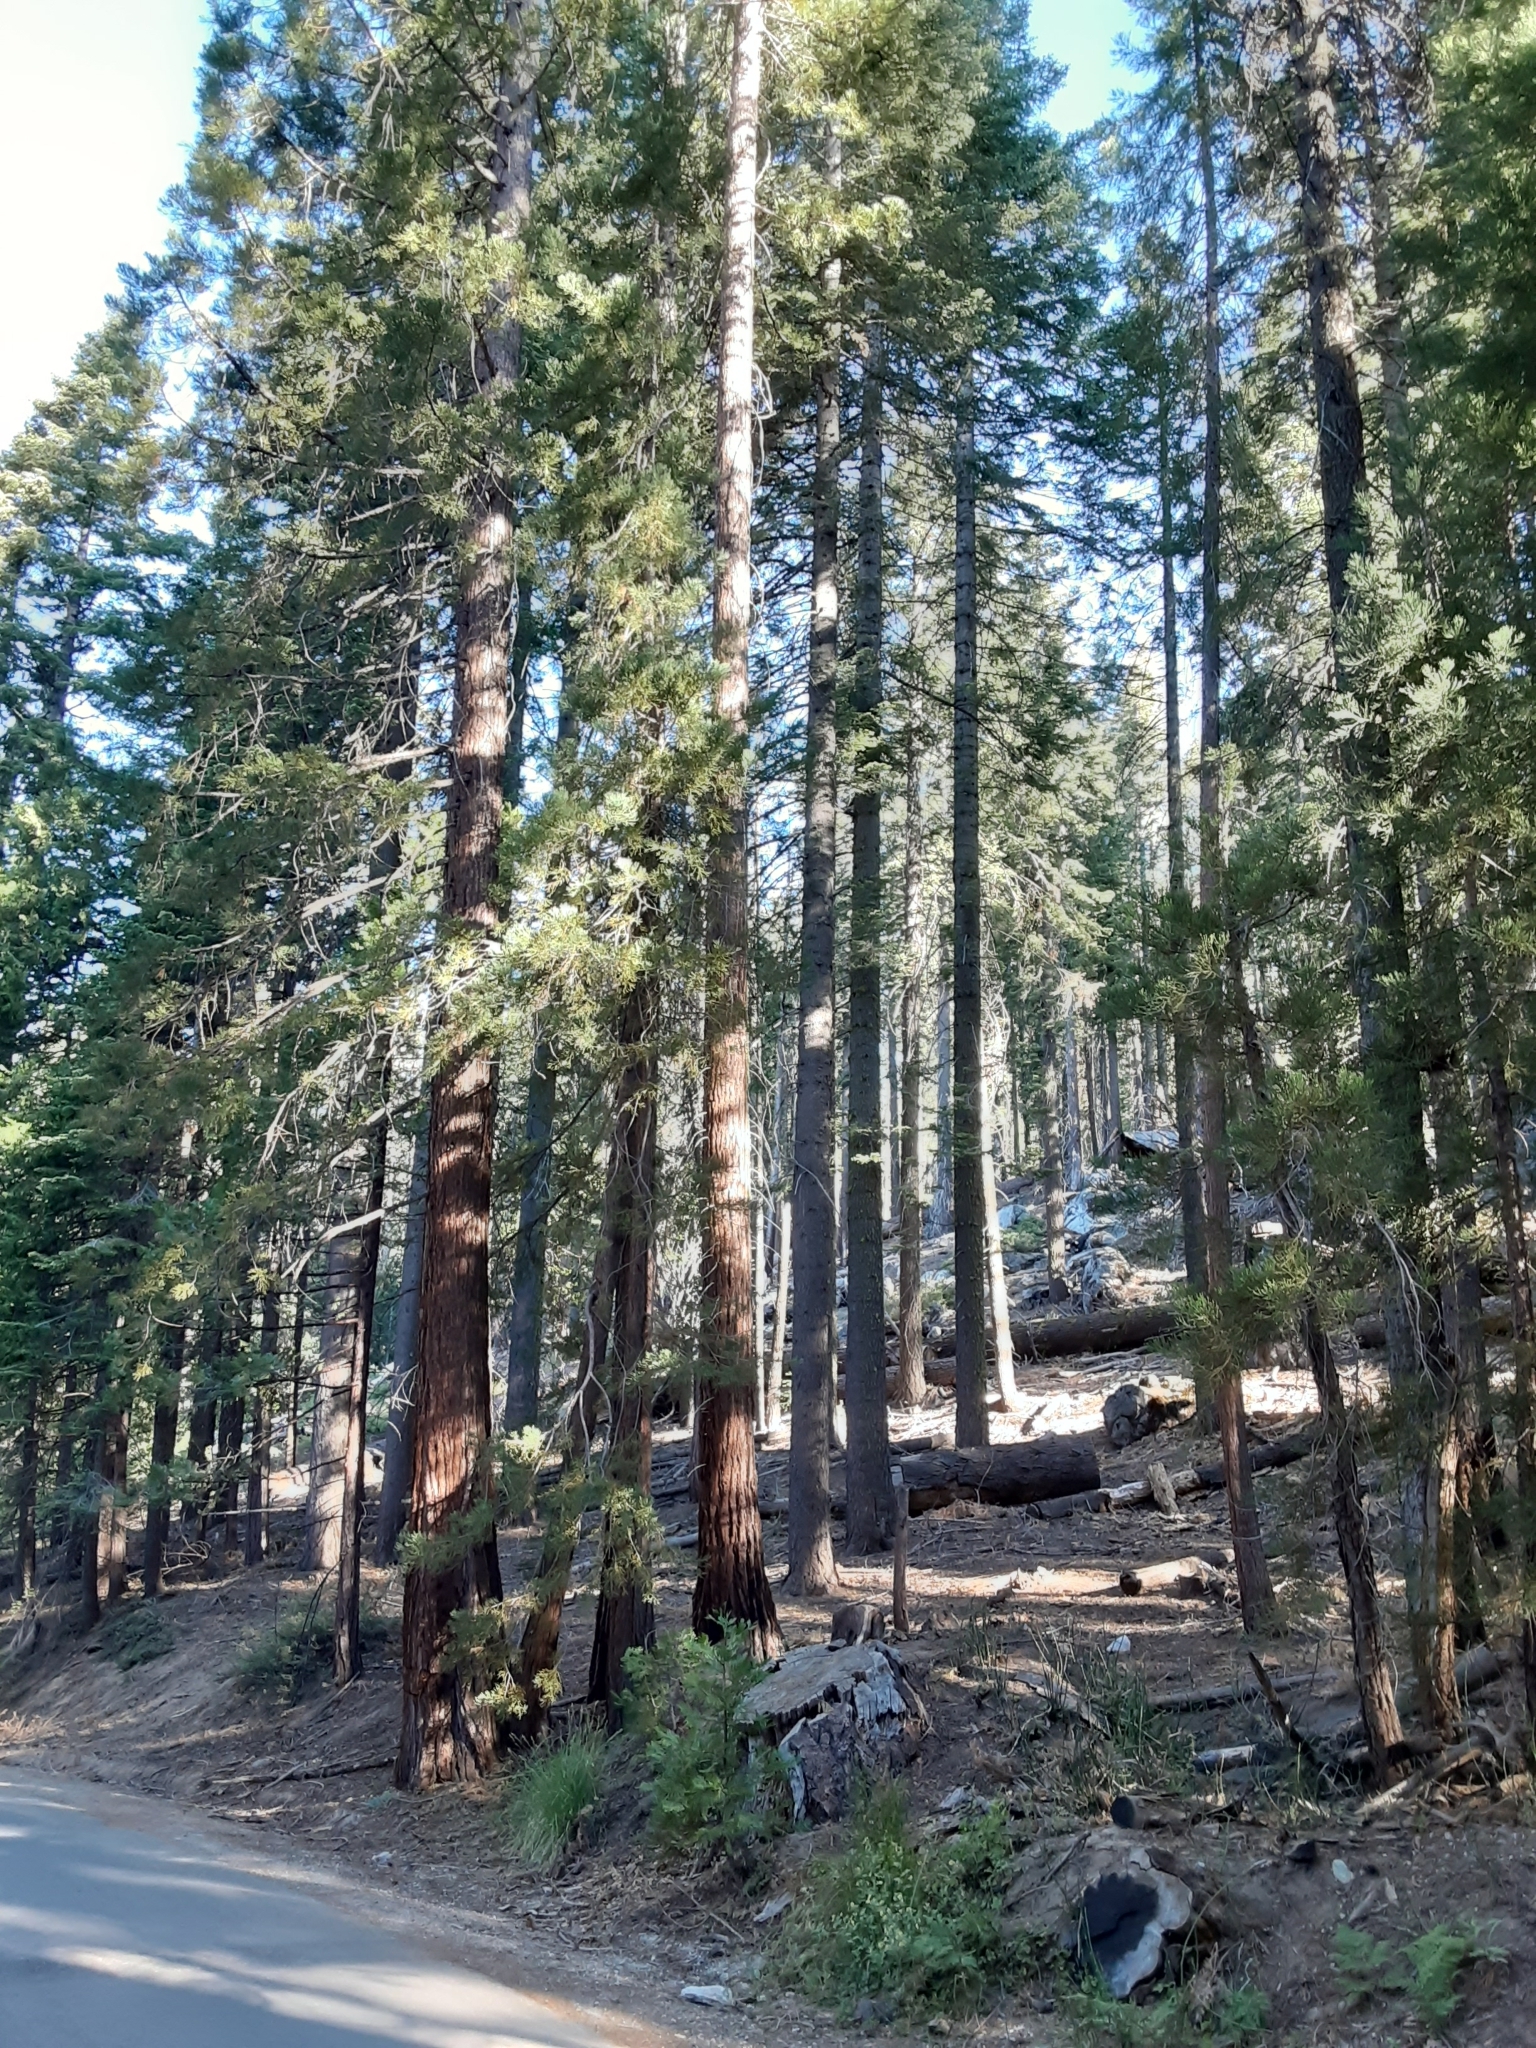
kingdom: Plantae
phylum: Tracheophyta
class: Pinopsida
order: Pinales
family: Cupressaceae
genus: Sequoiadendron
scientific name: Sequoiadendron giganteum
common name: Wellingtonia
